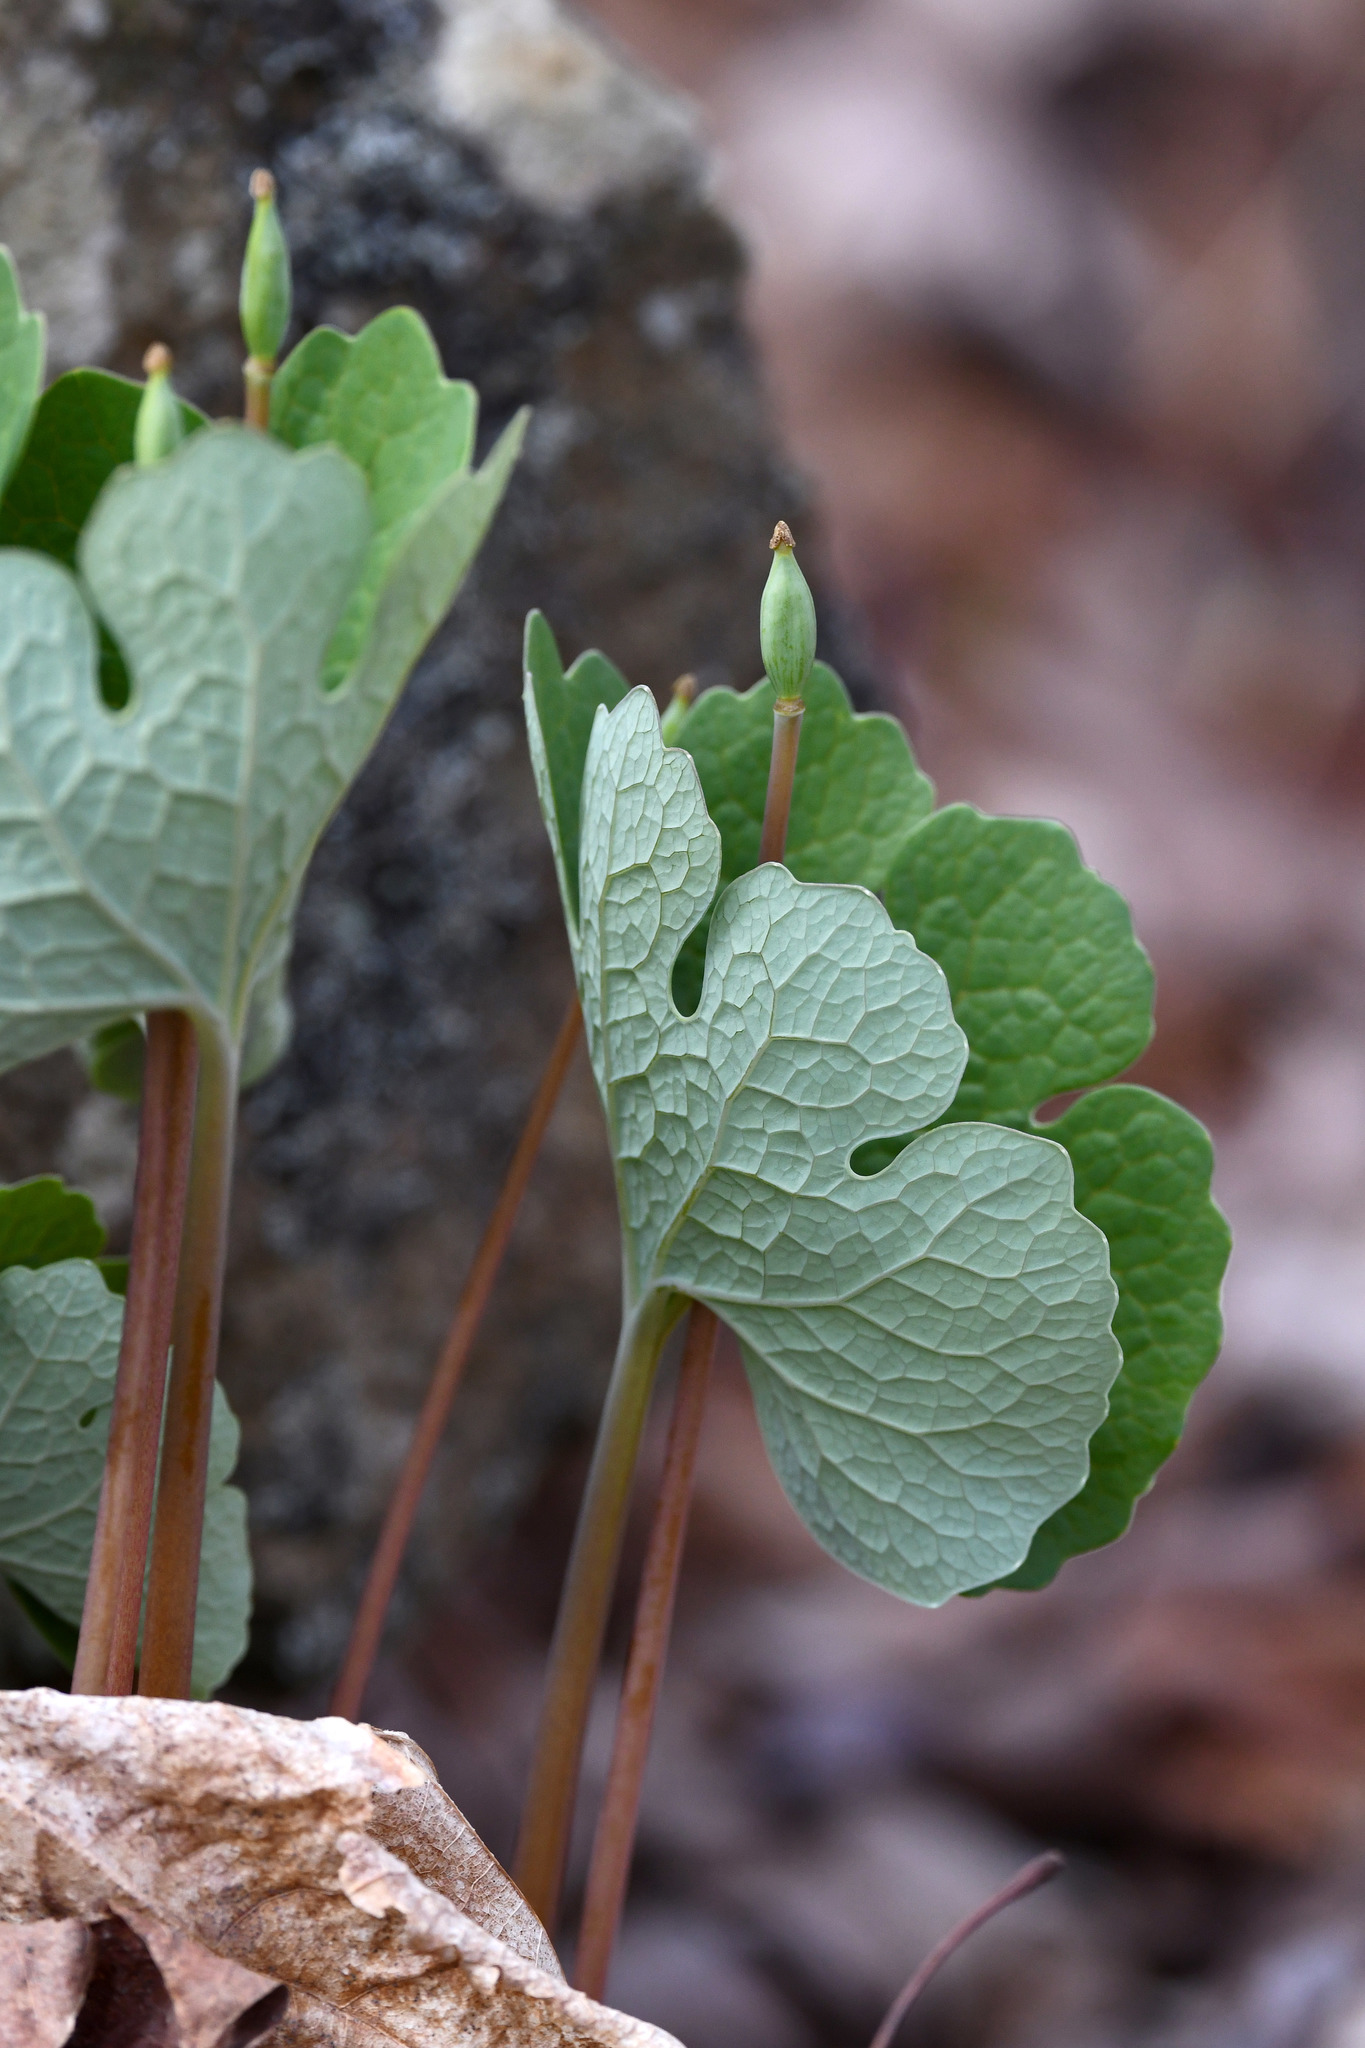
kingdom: Plantae
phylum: Tracheophyta
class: Magnoliopsida
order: Ranunculales
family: Papaveraceae
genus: Sanguinaria
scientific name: Sanguinaria canadensis
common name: Bloodroot
